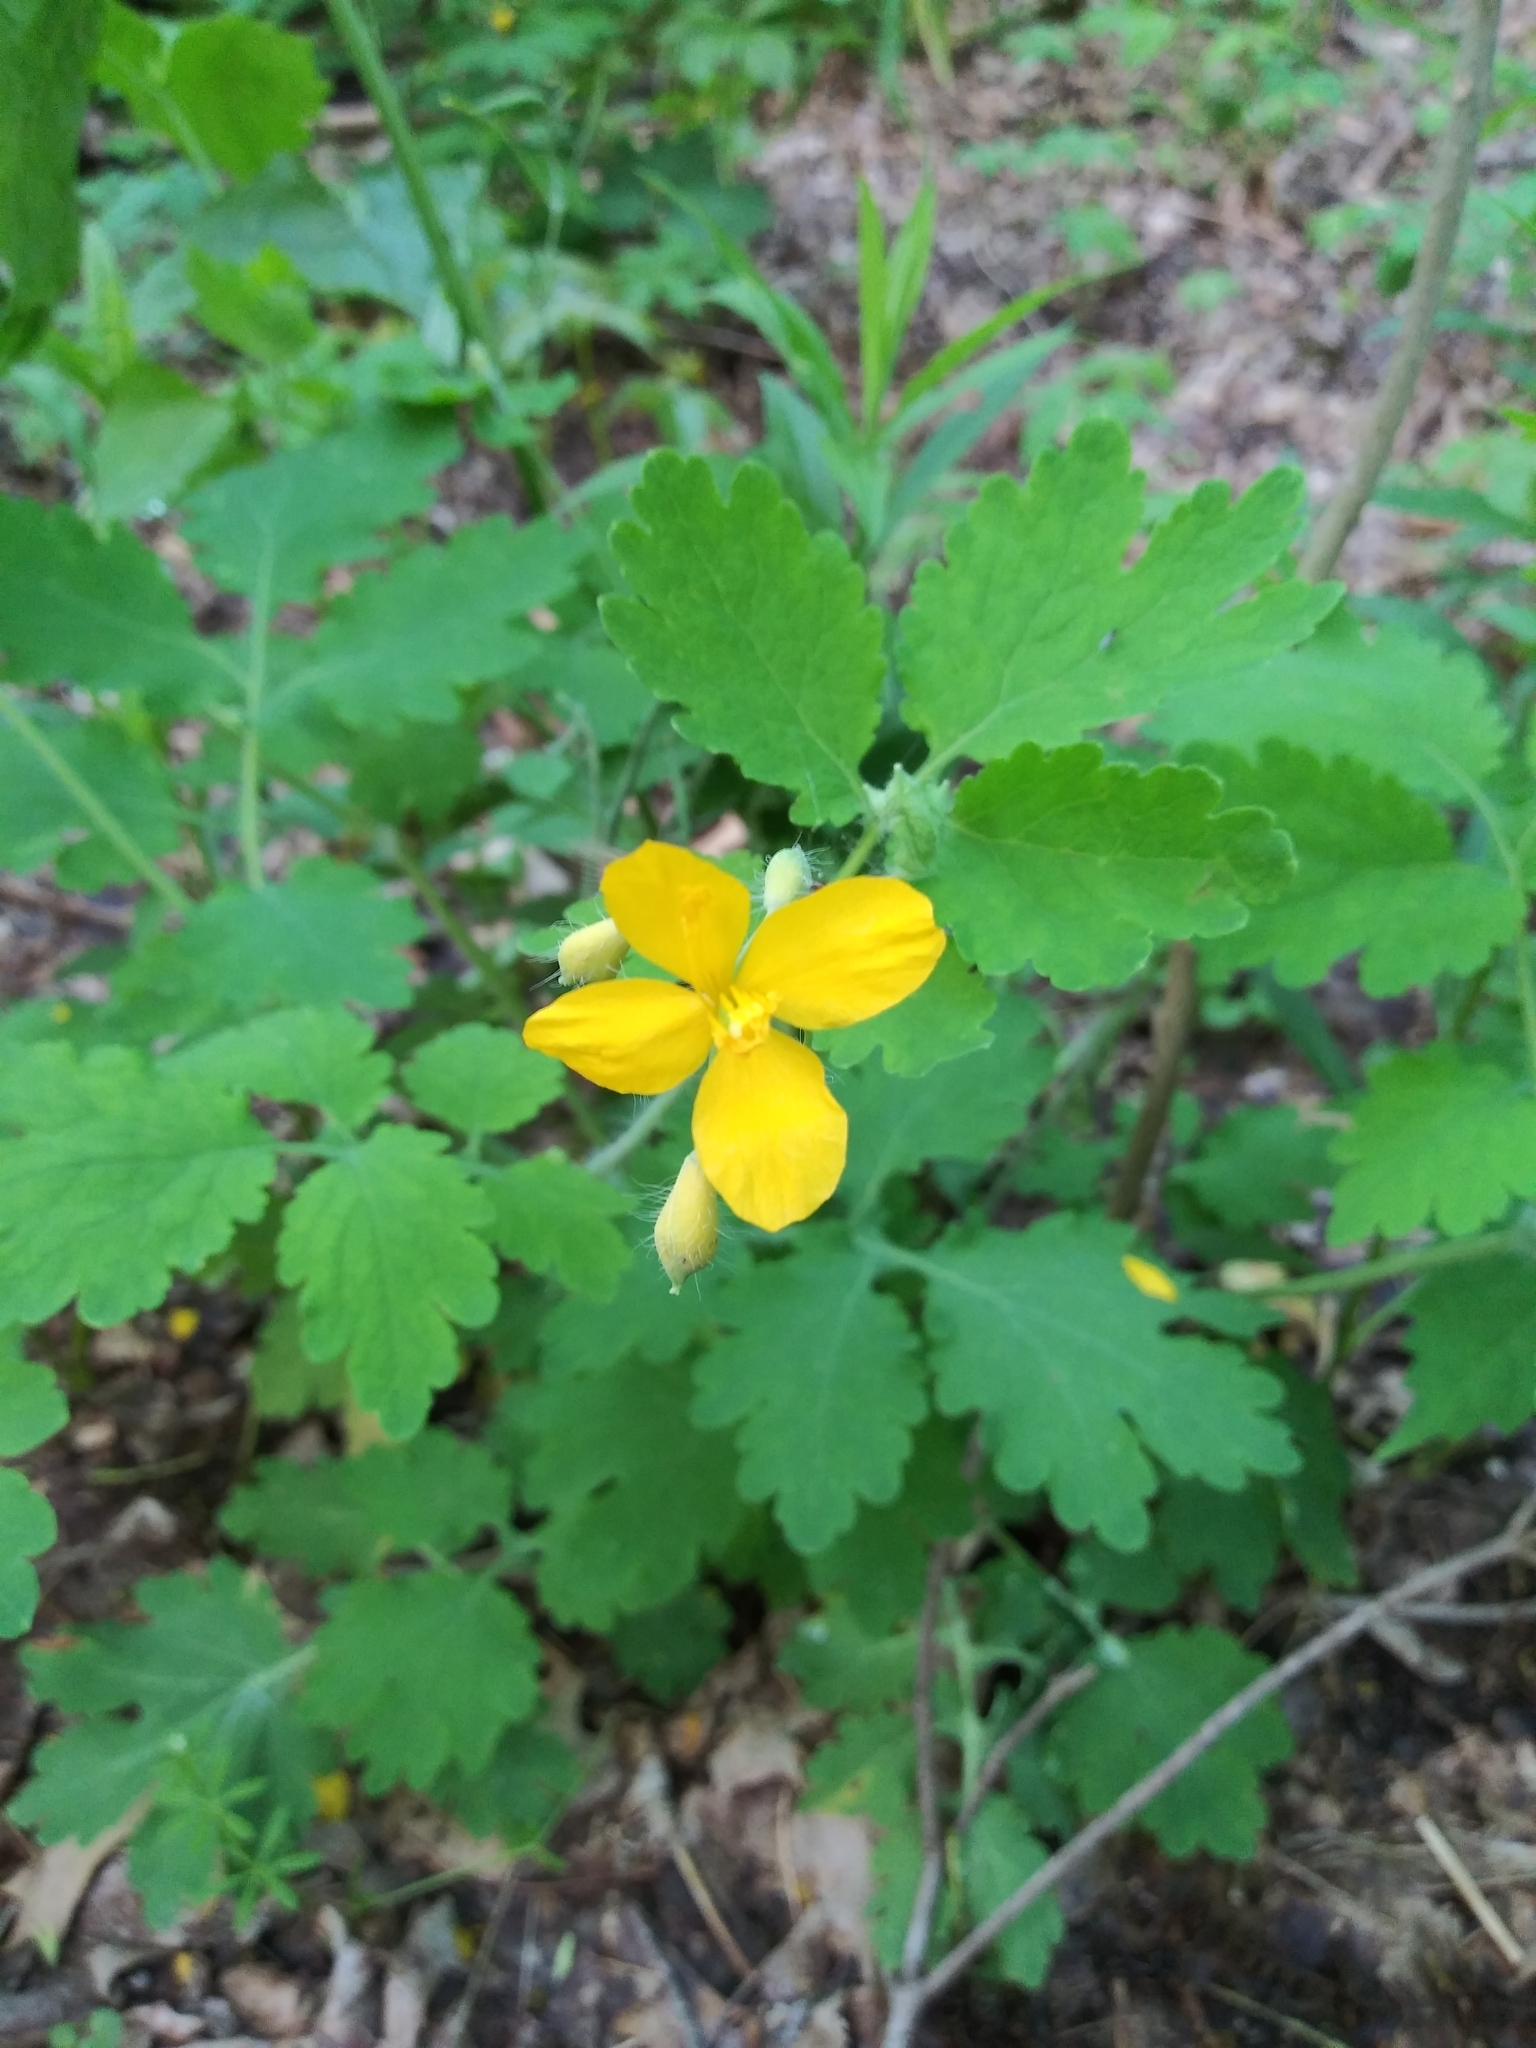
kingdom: Plantae
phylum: Tracheophyta
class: Magnoliopsida
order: Ranunculales
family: Papaveraceae
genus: Chelidonium
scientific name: Chelidonium majus
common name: Greater celandine
